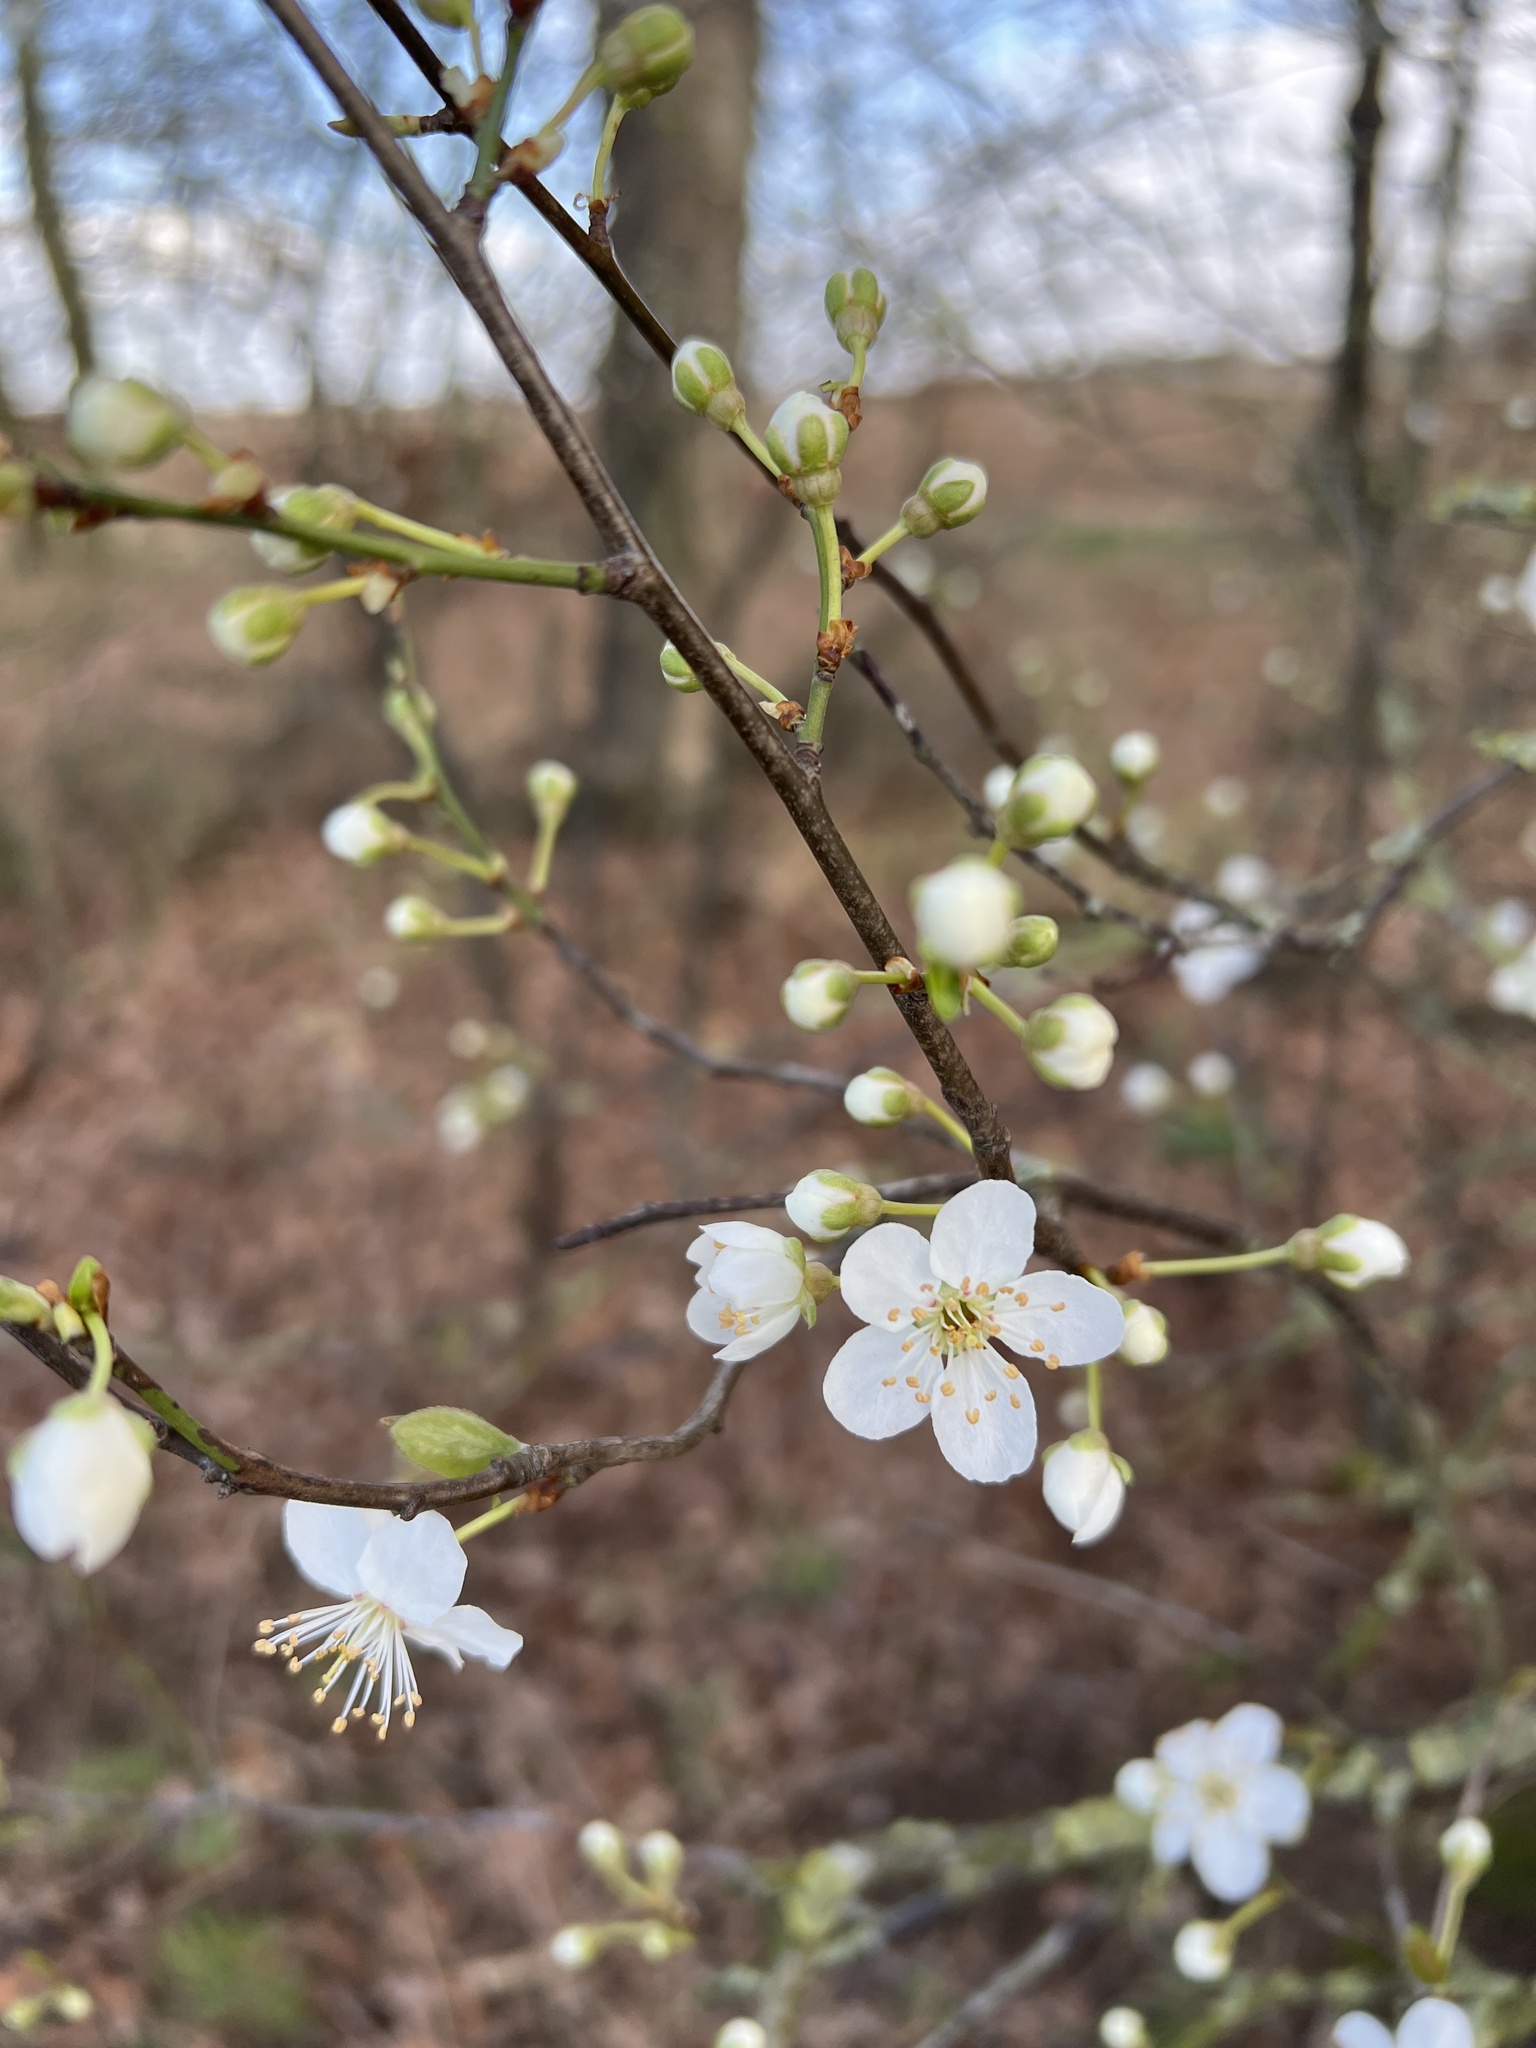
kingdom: Plantae
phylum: Tracheophyta
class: Magnoliopsida
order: Rosales
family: Rosaceae
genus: Prunus
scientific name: Prunus cerasifera
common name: Cherry plum
